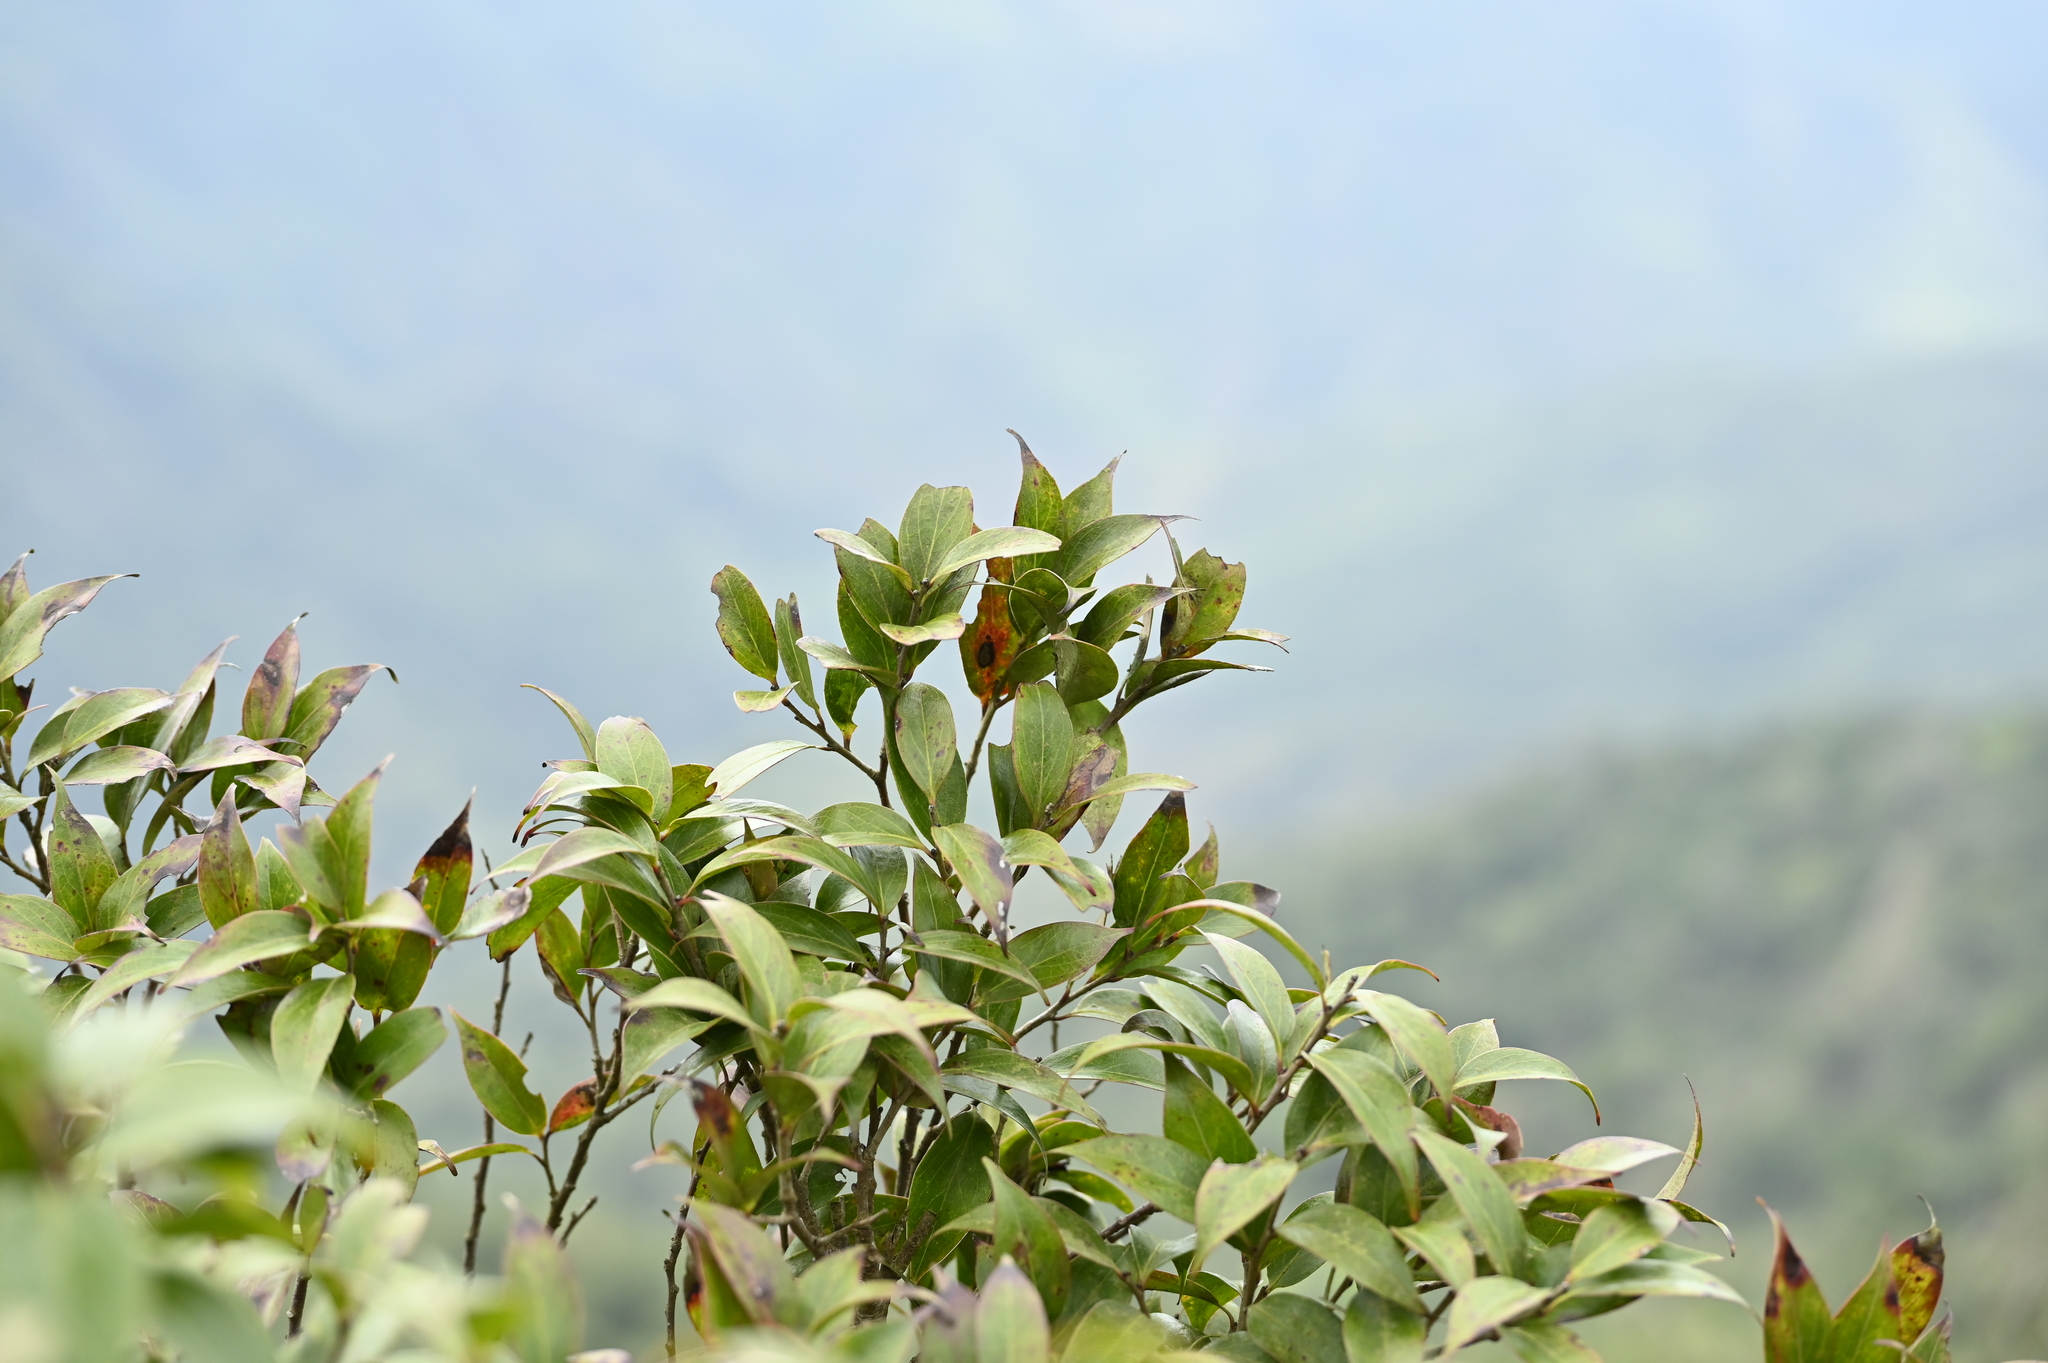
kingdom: Plantae
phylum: Tracheophyta
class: Magnoliopsida
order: Ericales
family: Ericaceae
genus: Vaccinium
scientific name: Vaccinium dunalianum
